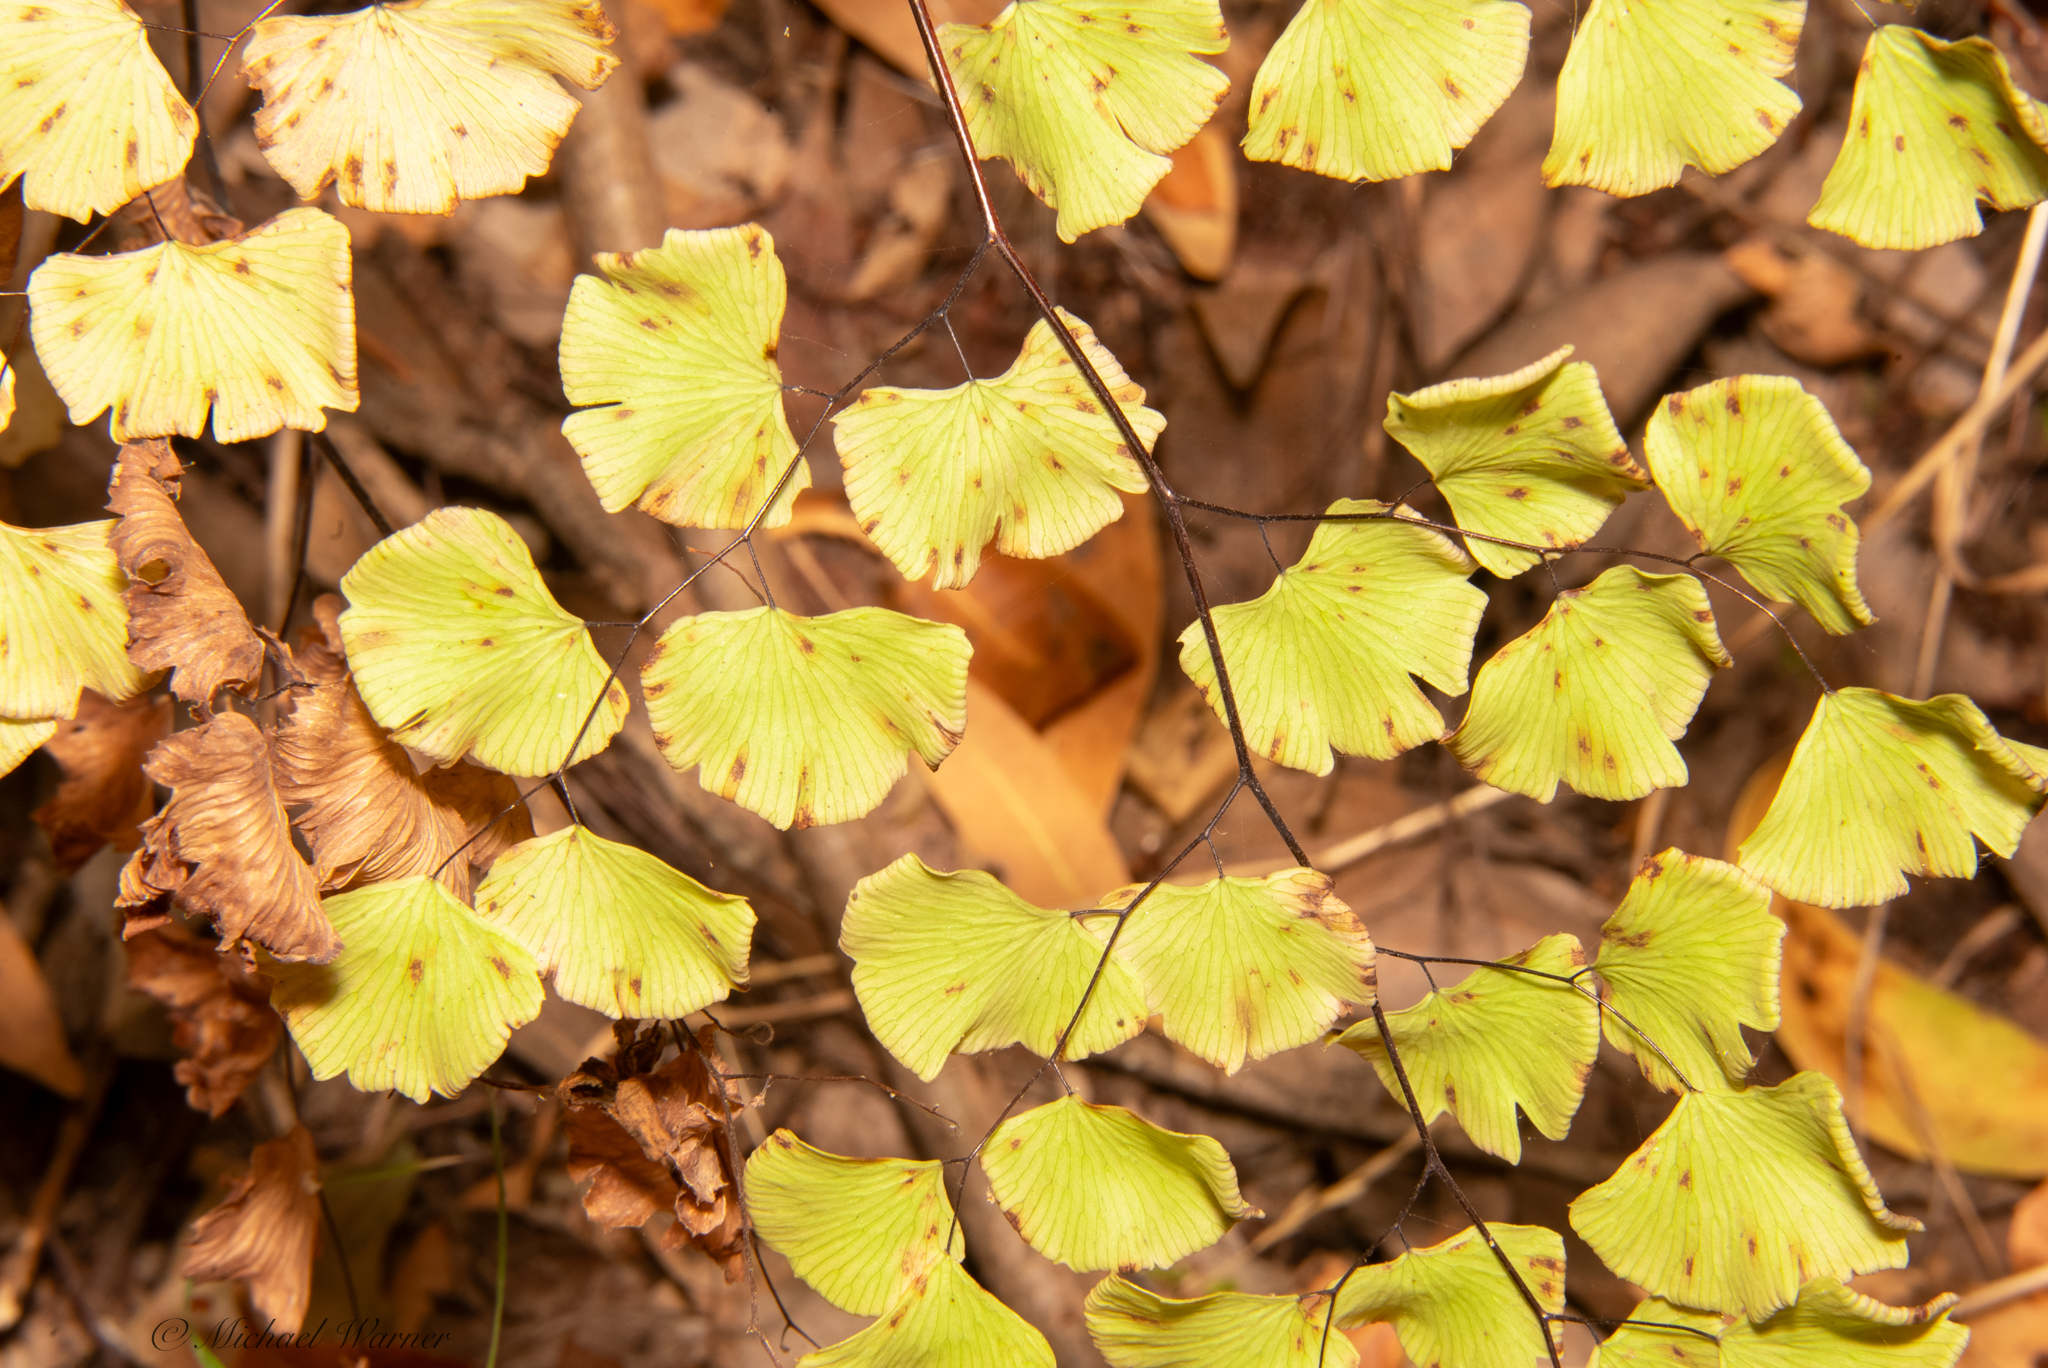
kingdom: Plantae
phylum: Tracheophyta
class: Polypodiopsida
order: Polypodiales
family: Pteridaceae
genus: Adiantum
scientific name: Adiantum jordanii
